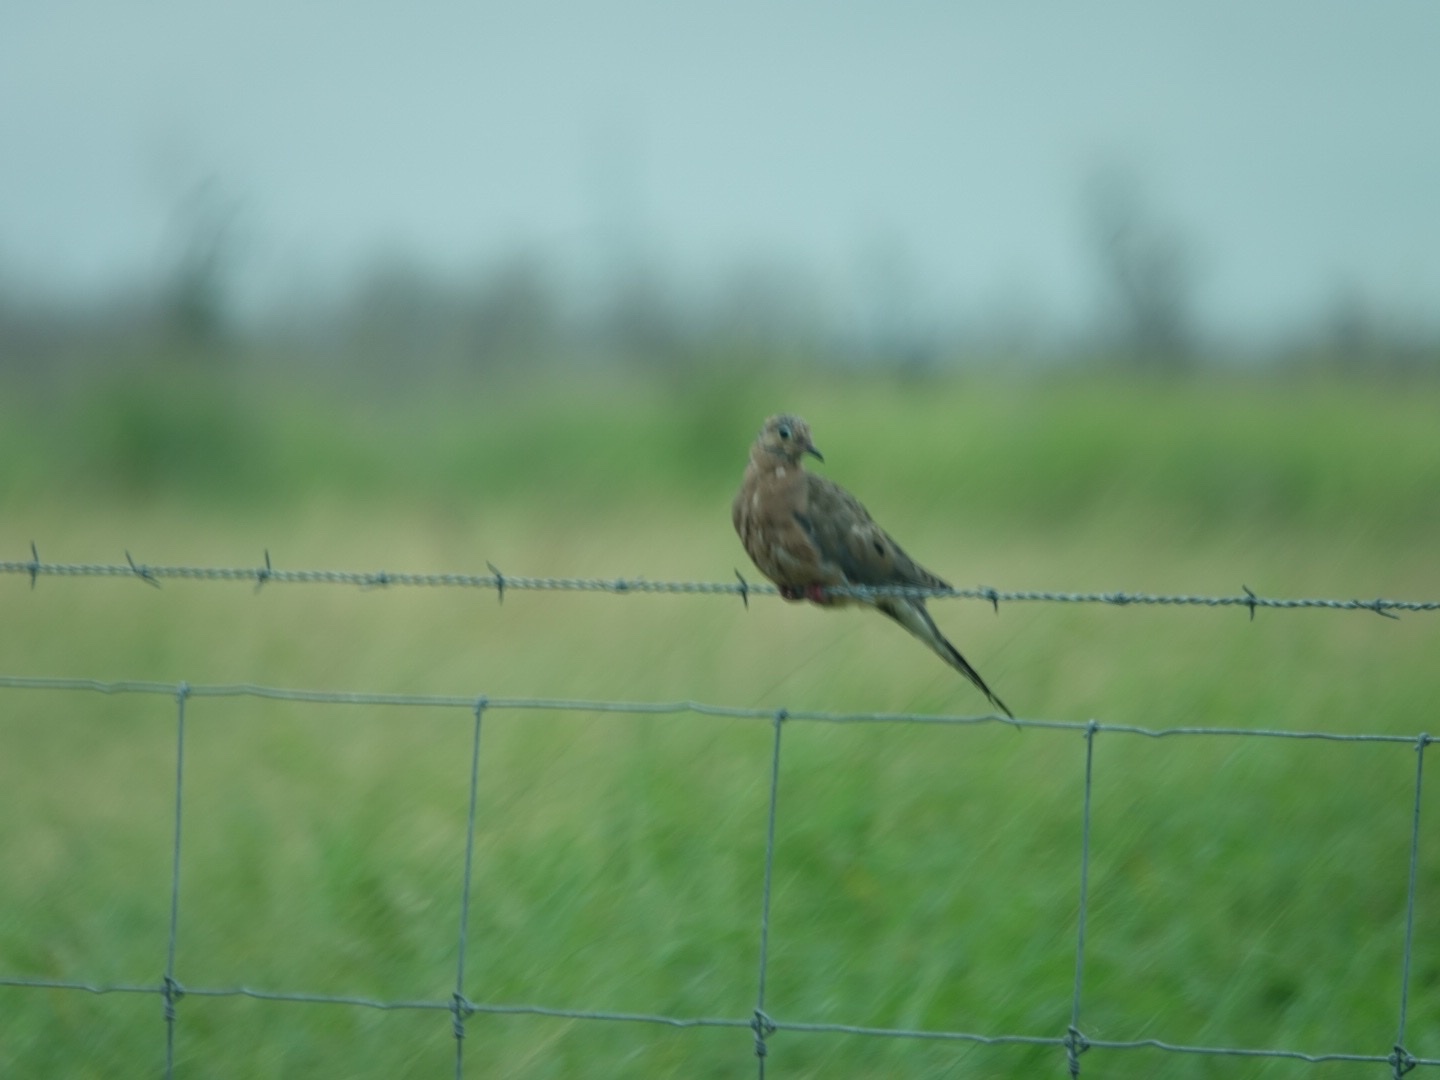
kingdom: Animalia
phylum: Chordata
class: Aves
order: Columbiformes
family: Columbidae
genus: Zenaida
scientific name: Zenaida macroura
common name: Mourning dove
